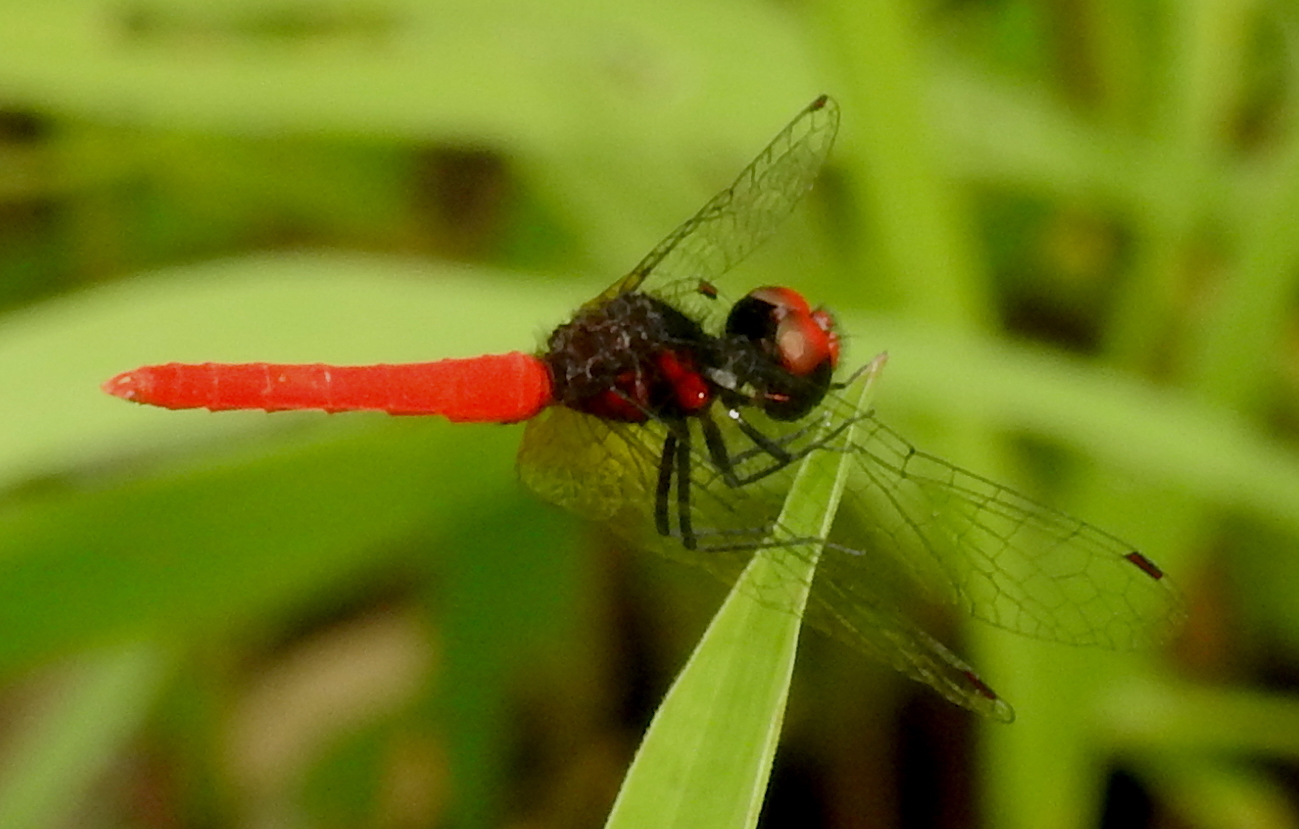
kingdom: Animalia
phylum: Arthropoda
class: Insecta
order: Odonata
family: Libellulidae
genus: Nannophya
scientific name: Nannophya pygmaea
